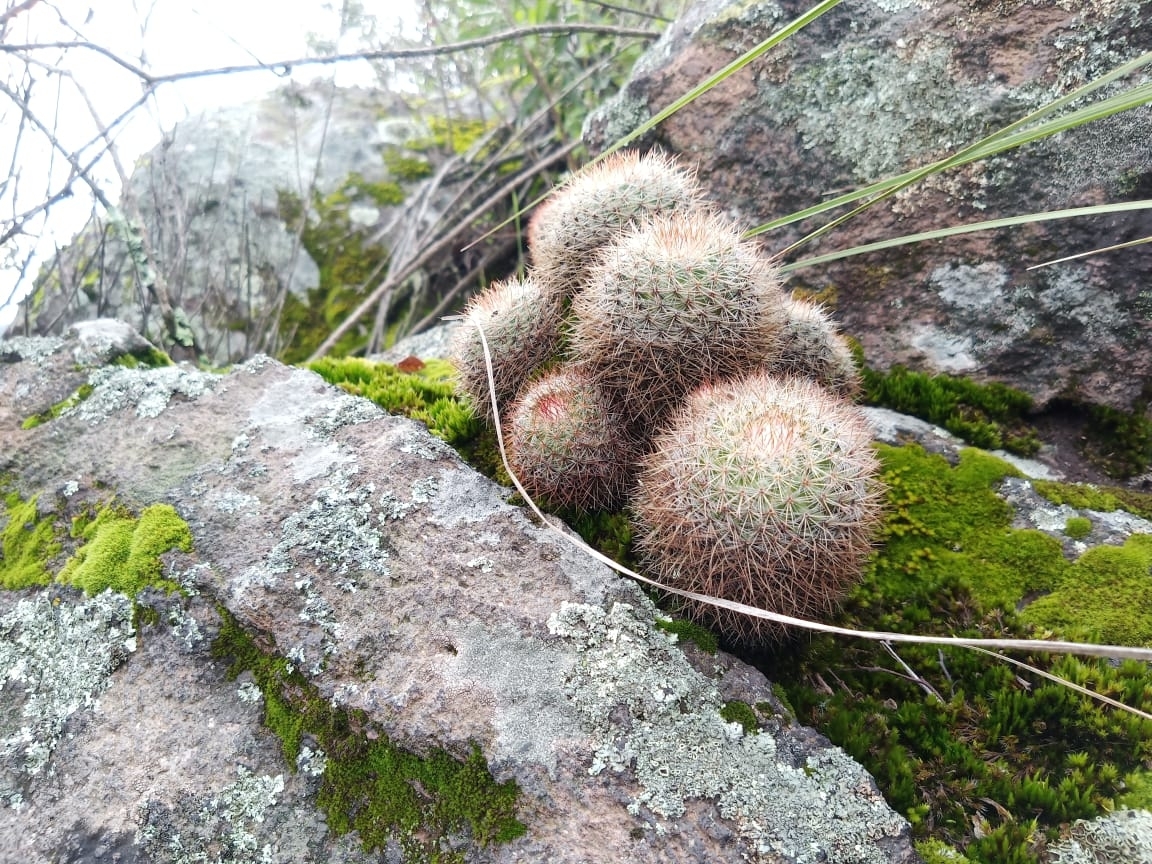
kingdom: Plantae
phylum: Tracheophyta
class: Magnoliopsida
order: Caryophyllales
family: Cactaceae
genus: Mammillaria
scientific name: Mammillaria rhodantha
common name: Rainbow pincushion
